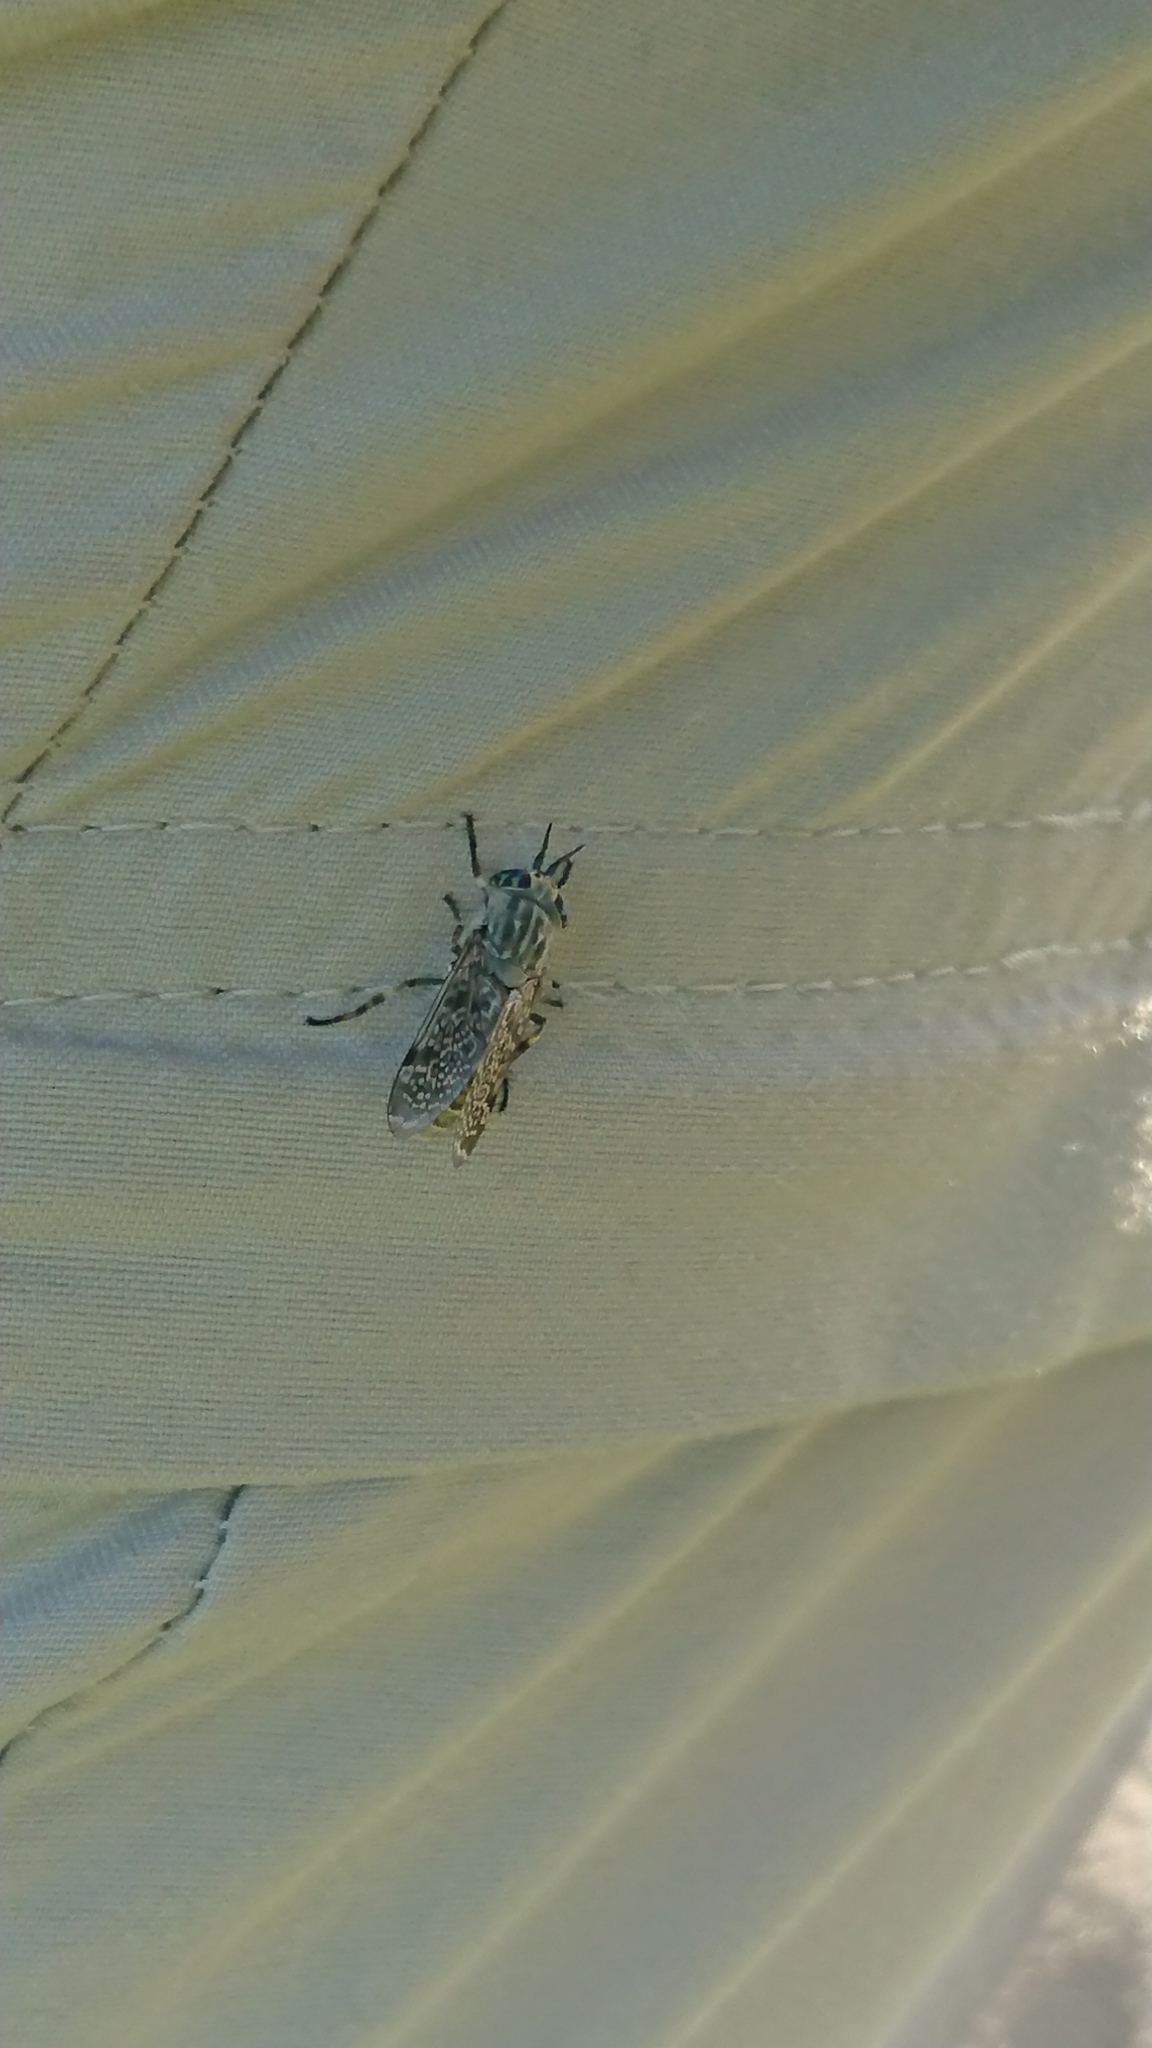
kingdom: Animalia
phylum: Arthropoda
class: Insecta
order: Diptera
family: Tabanidae
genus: Haematopota
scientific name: Haematopota pluvialis
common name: Common horse fly
